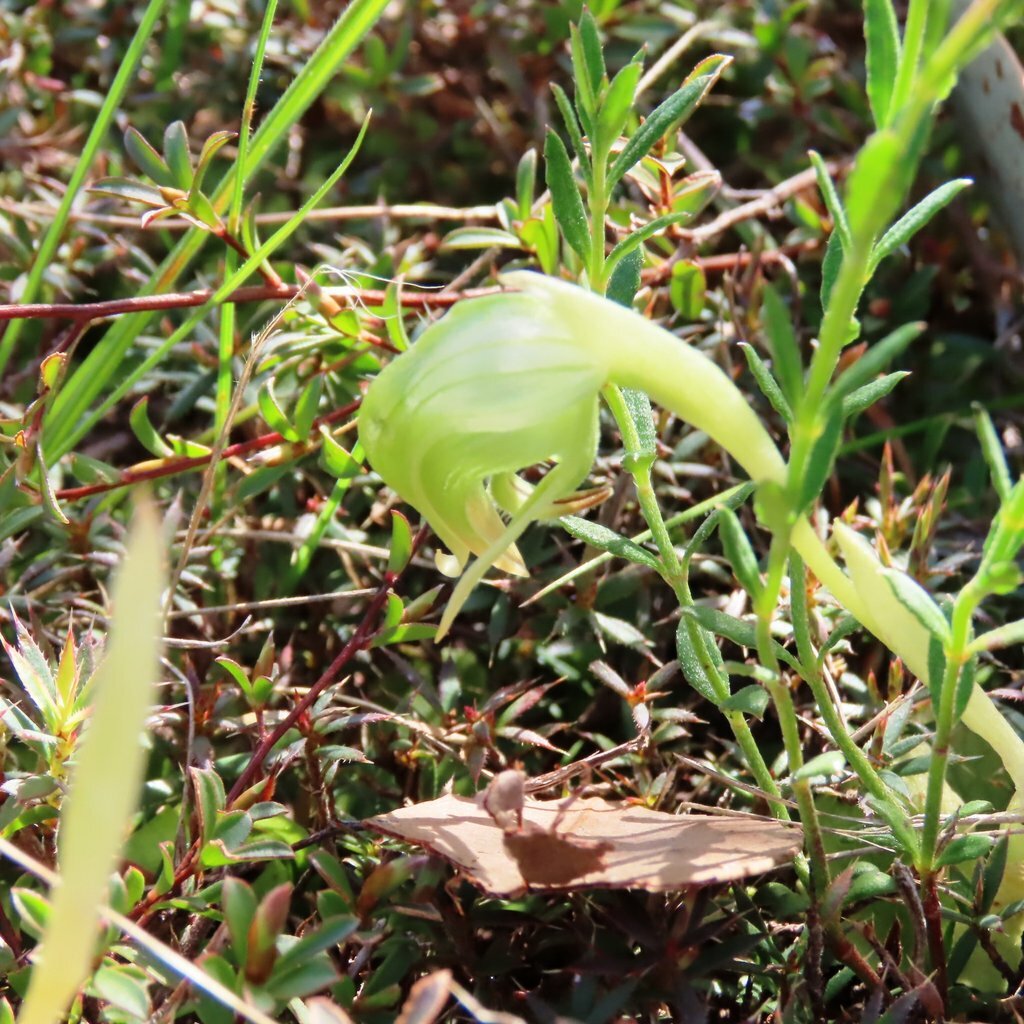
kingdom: Plantae
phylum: Tracheophyta
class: Liliopsida
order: Asparagales
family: Orchidaceae
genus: Pterostylis
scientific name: Pterostylis nutans
